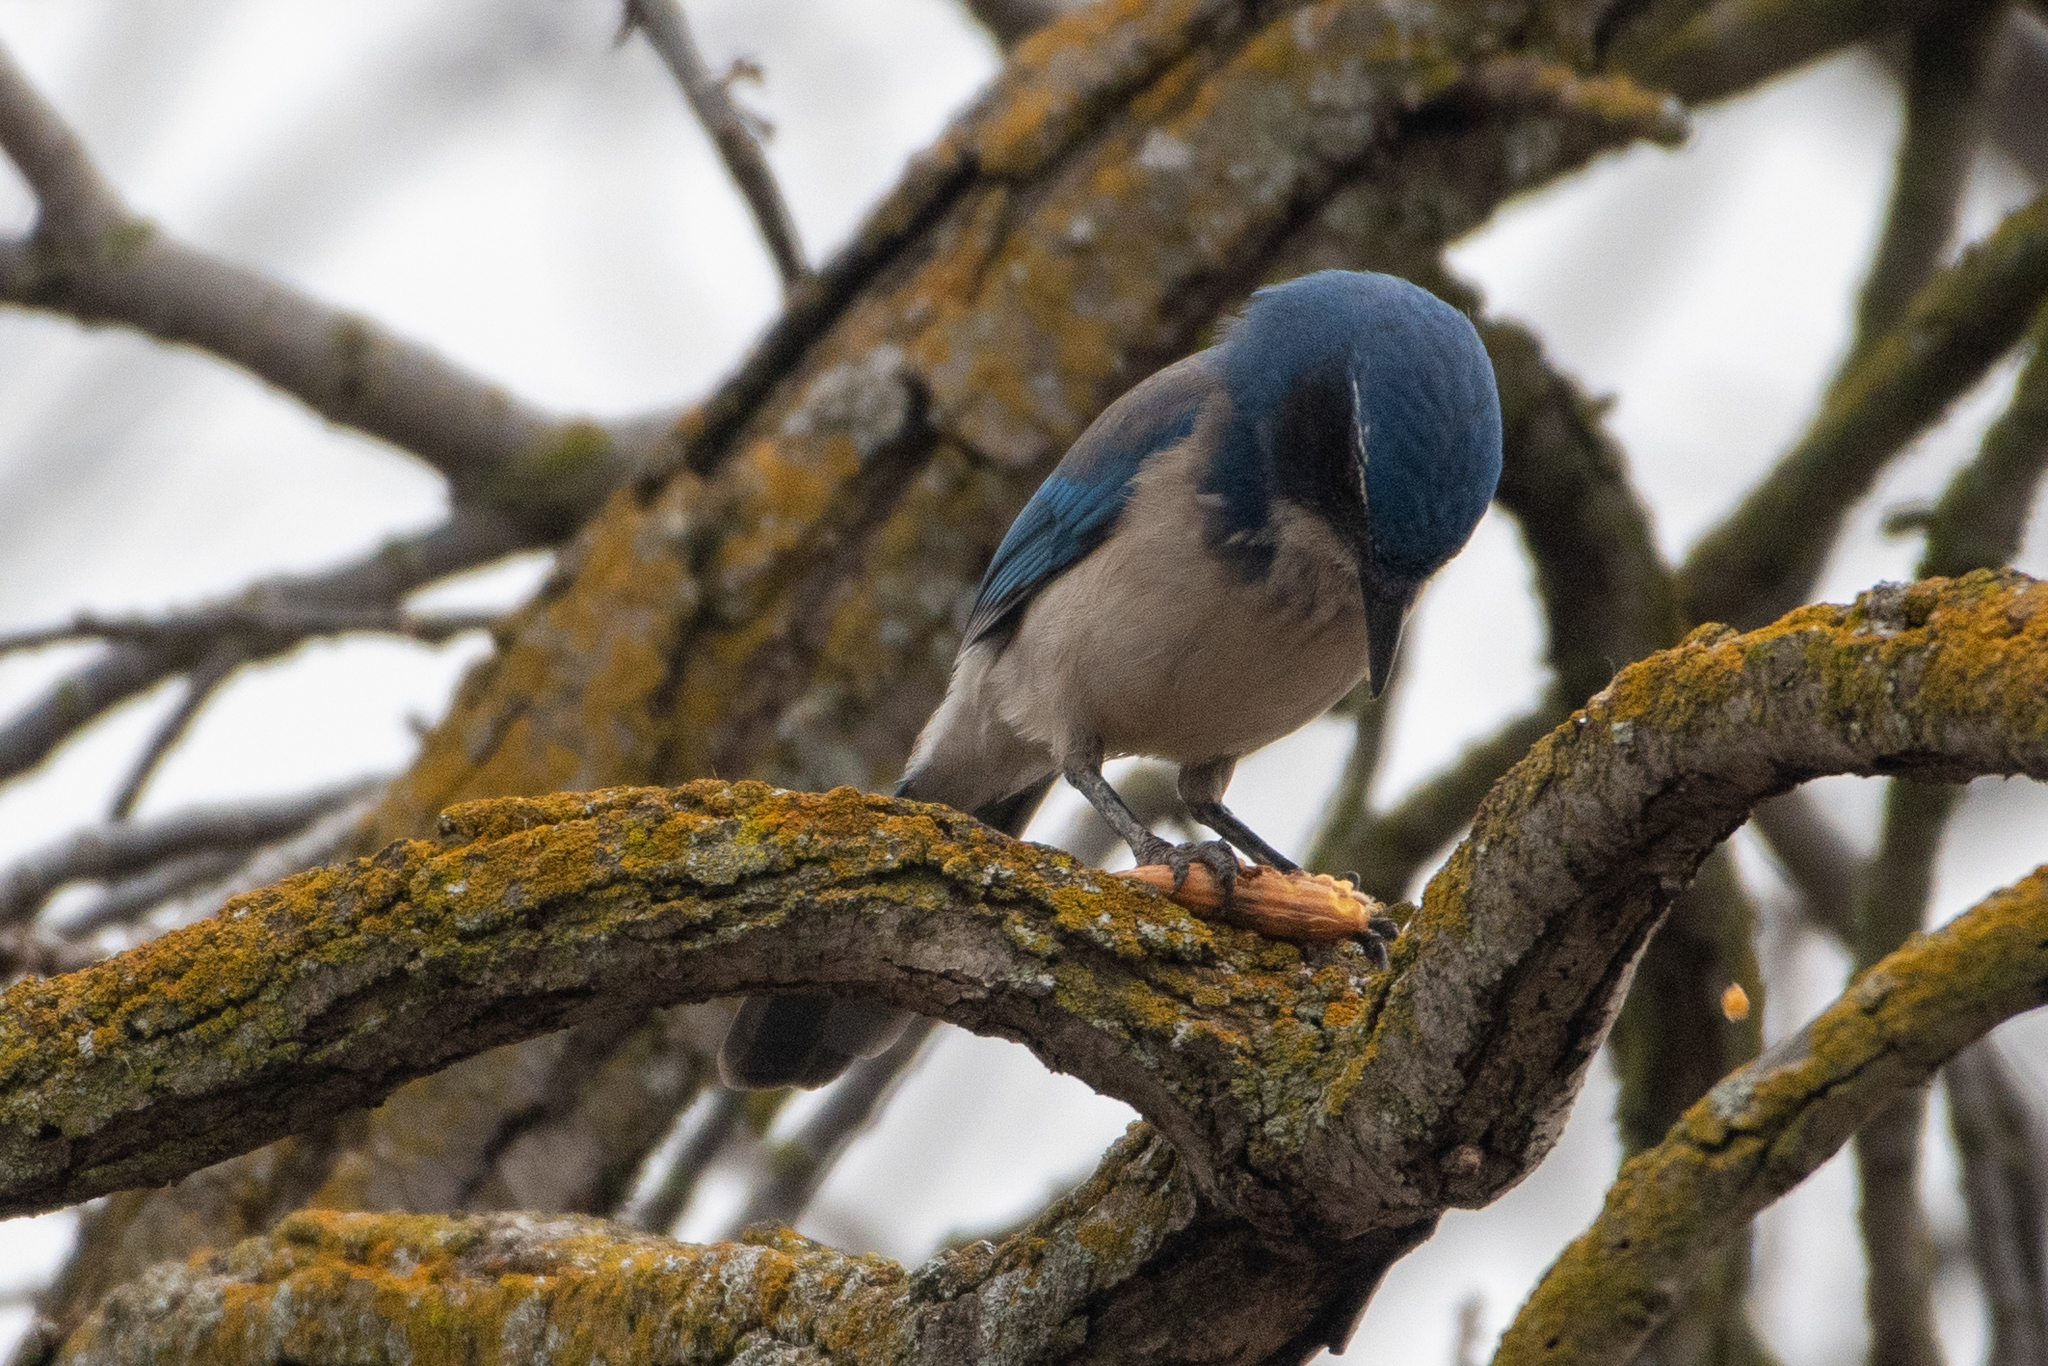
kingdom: Animalia
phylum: Chordata
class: Aves
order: Passeriformes
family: Corvidae
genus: Aphelocoma
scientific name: Aphelocoma californica
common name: California scrub-jay
